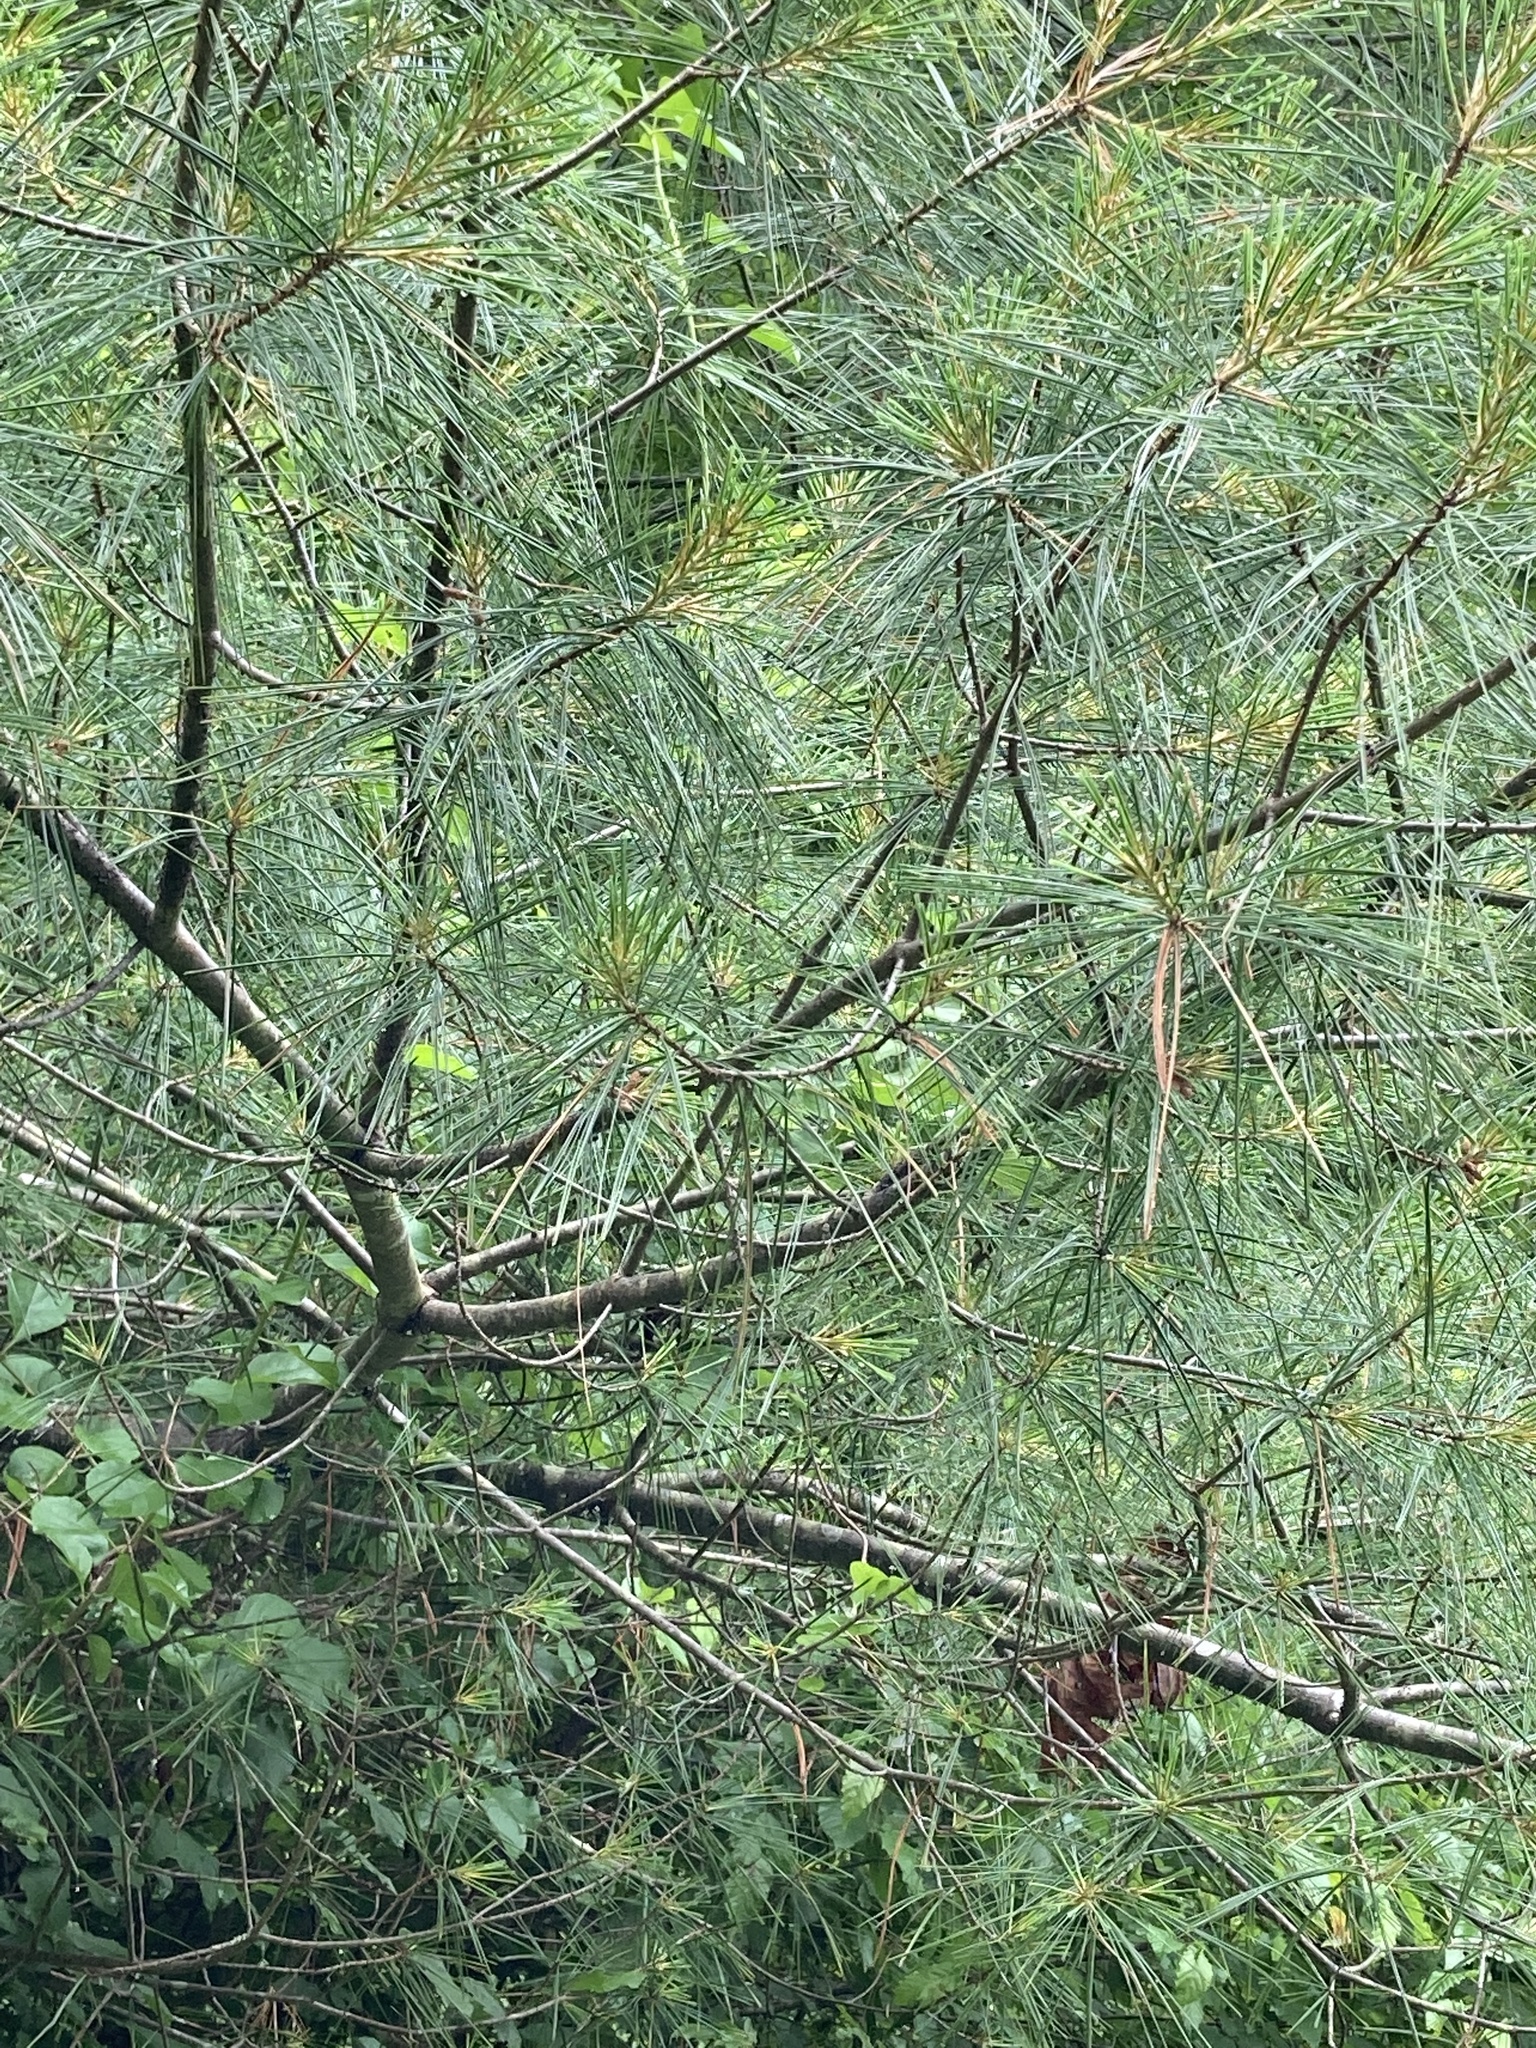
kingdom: Plantae
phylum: Tracheophyta
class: Pinopsida
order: Pinales
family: Pinaceae
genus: Pinus
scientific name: Pinus strobus
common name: Weymouth pine
